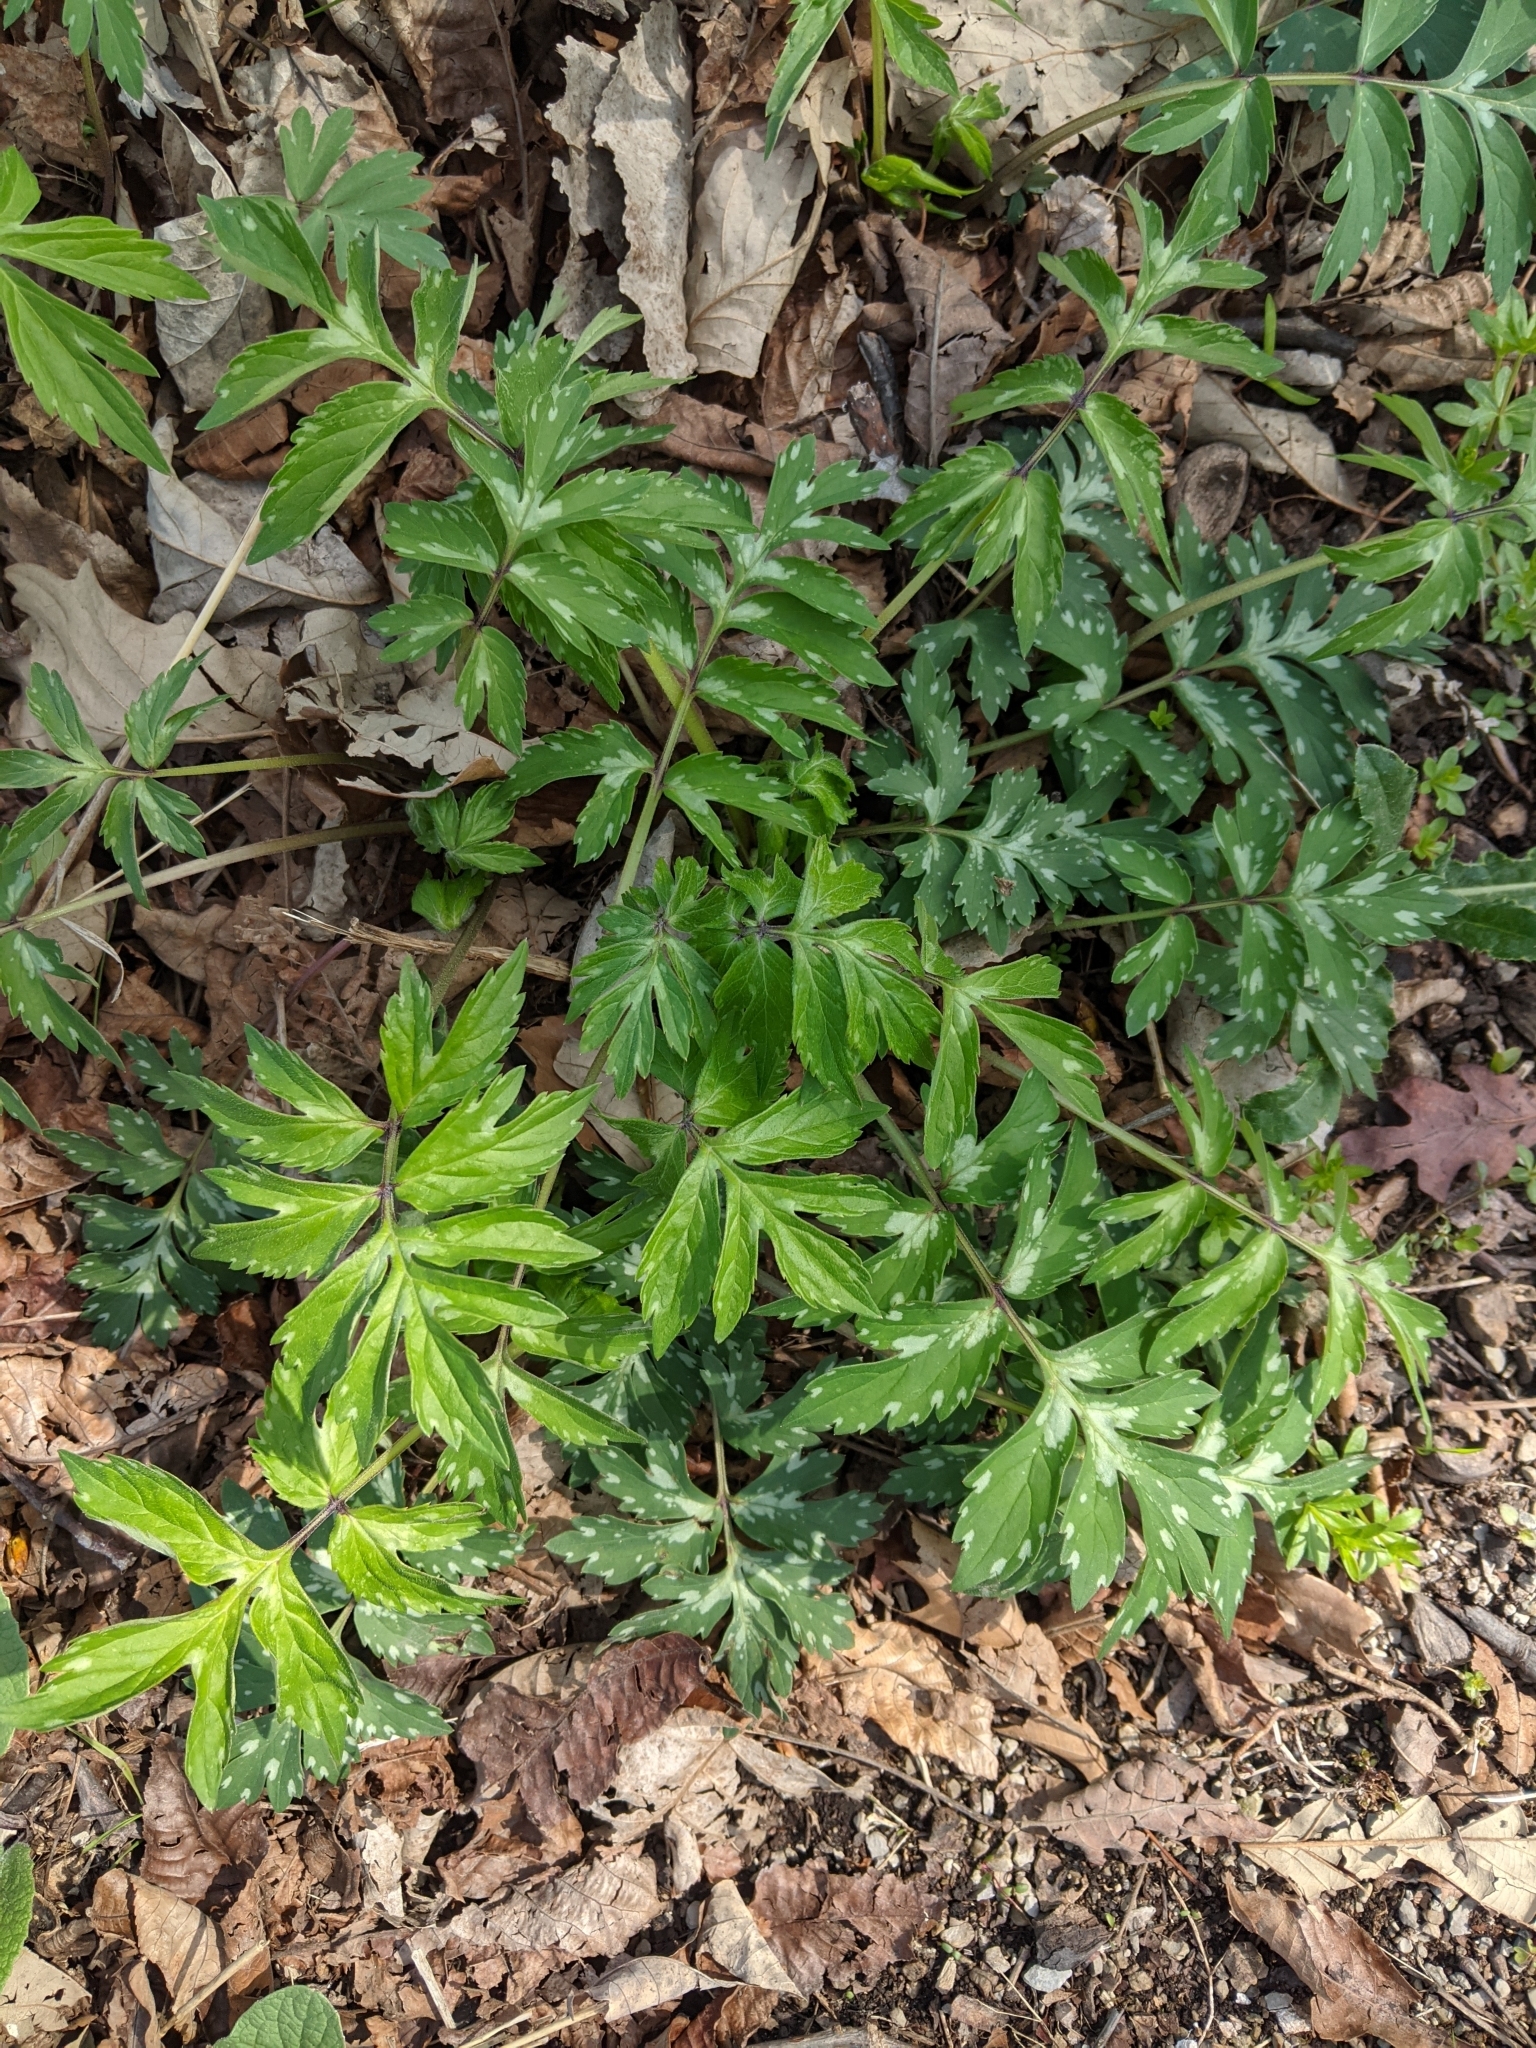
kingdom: Plantae
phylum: Tracheophyta
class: Magnoliopsida
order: Boraginales
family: Hydrophyllaceae
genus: Hydrophyllum
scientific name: Hydrophyllum virginianum
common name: Virginia waterleaf
